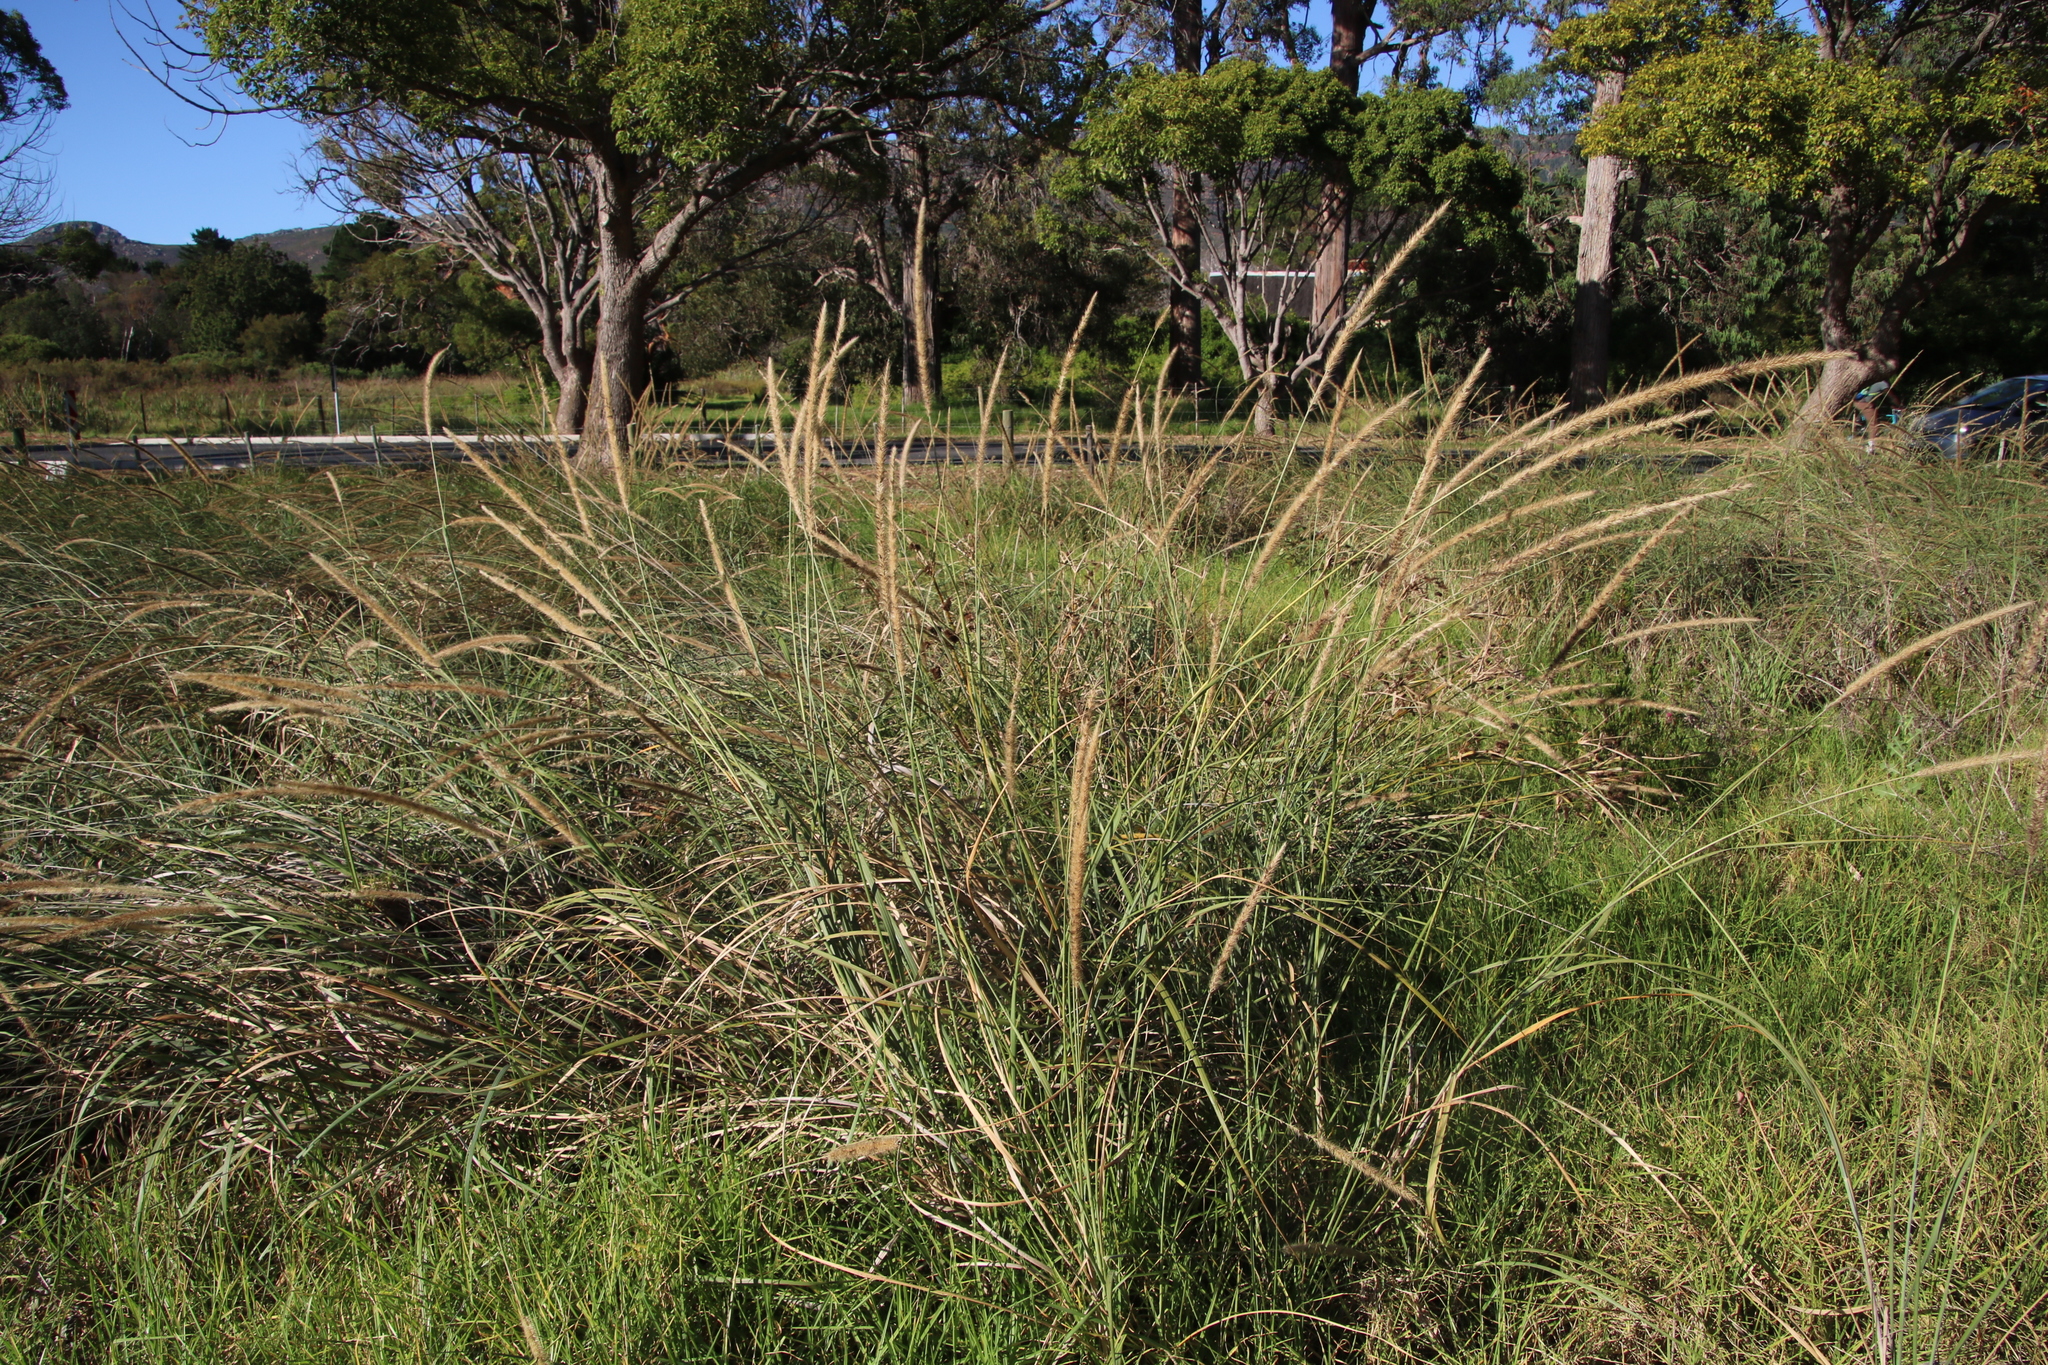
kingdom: Plantae
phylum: Tracheophyta
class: Liliopsida
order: Poales
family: Poaceae
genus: Cenchrus
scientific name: Cenchrus caudatus
